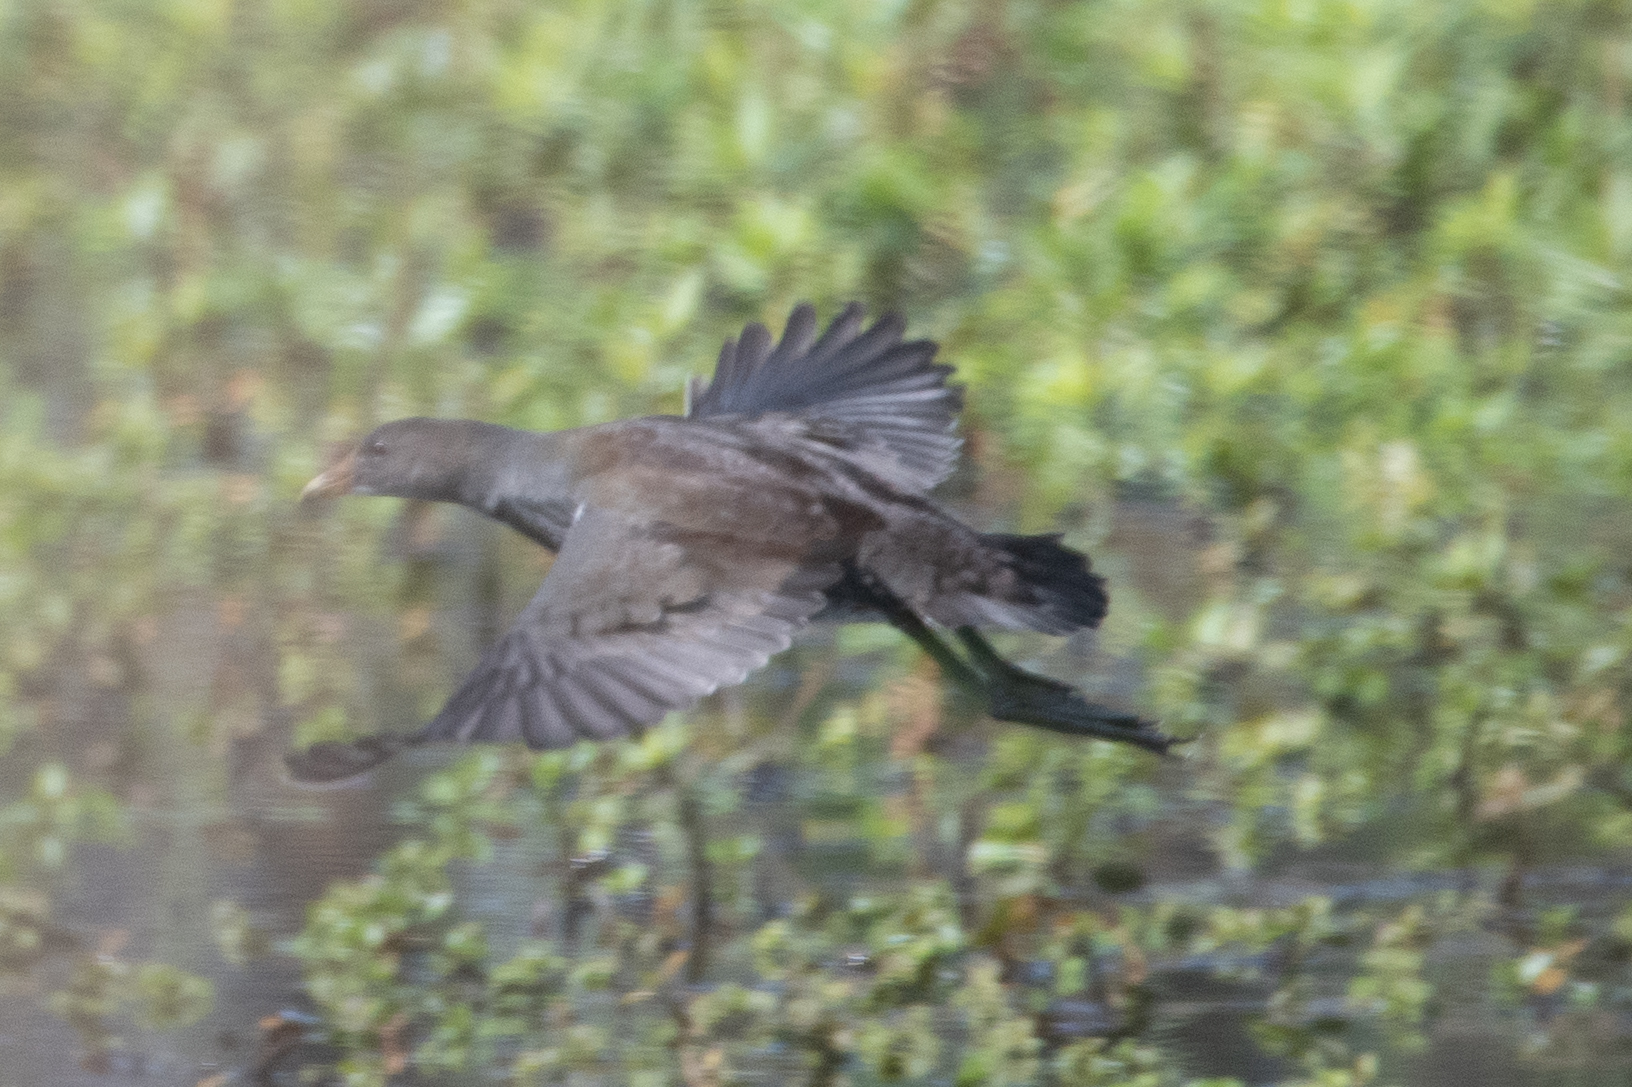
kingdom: Animalia
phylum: Chordata
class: Aves
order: Gruiformes
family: Rallidae
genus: Gallinula
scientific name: Gallinula chloropus
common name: Common moorhen
